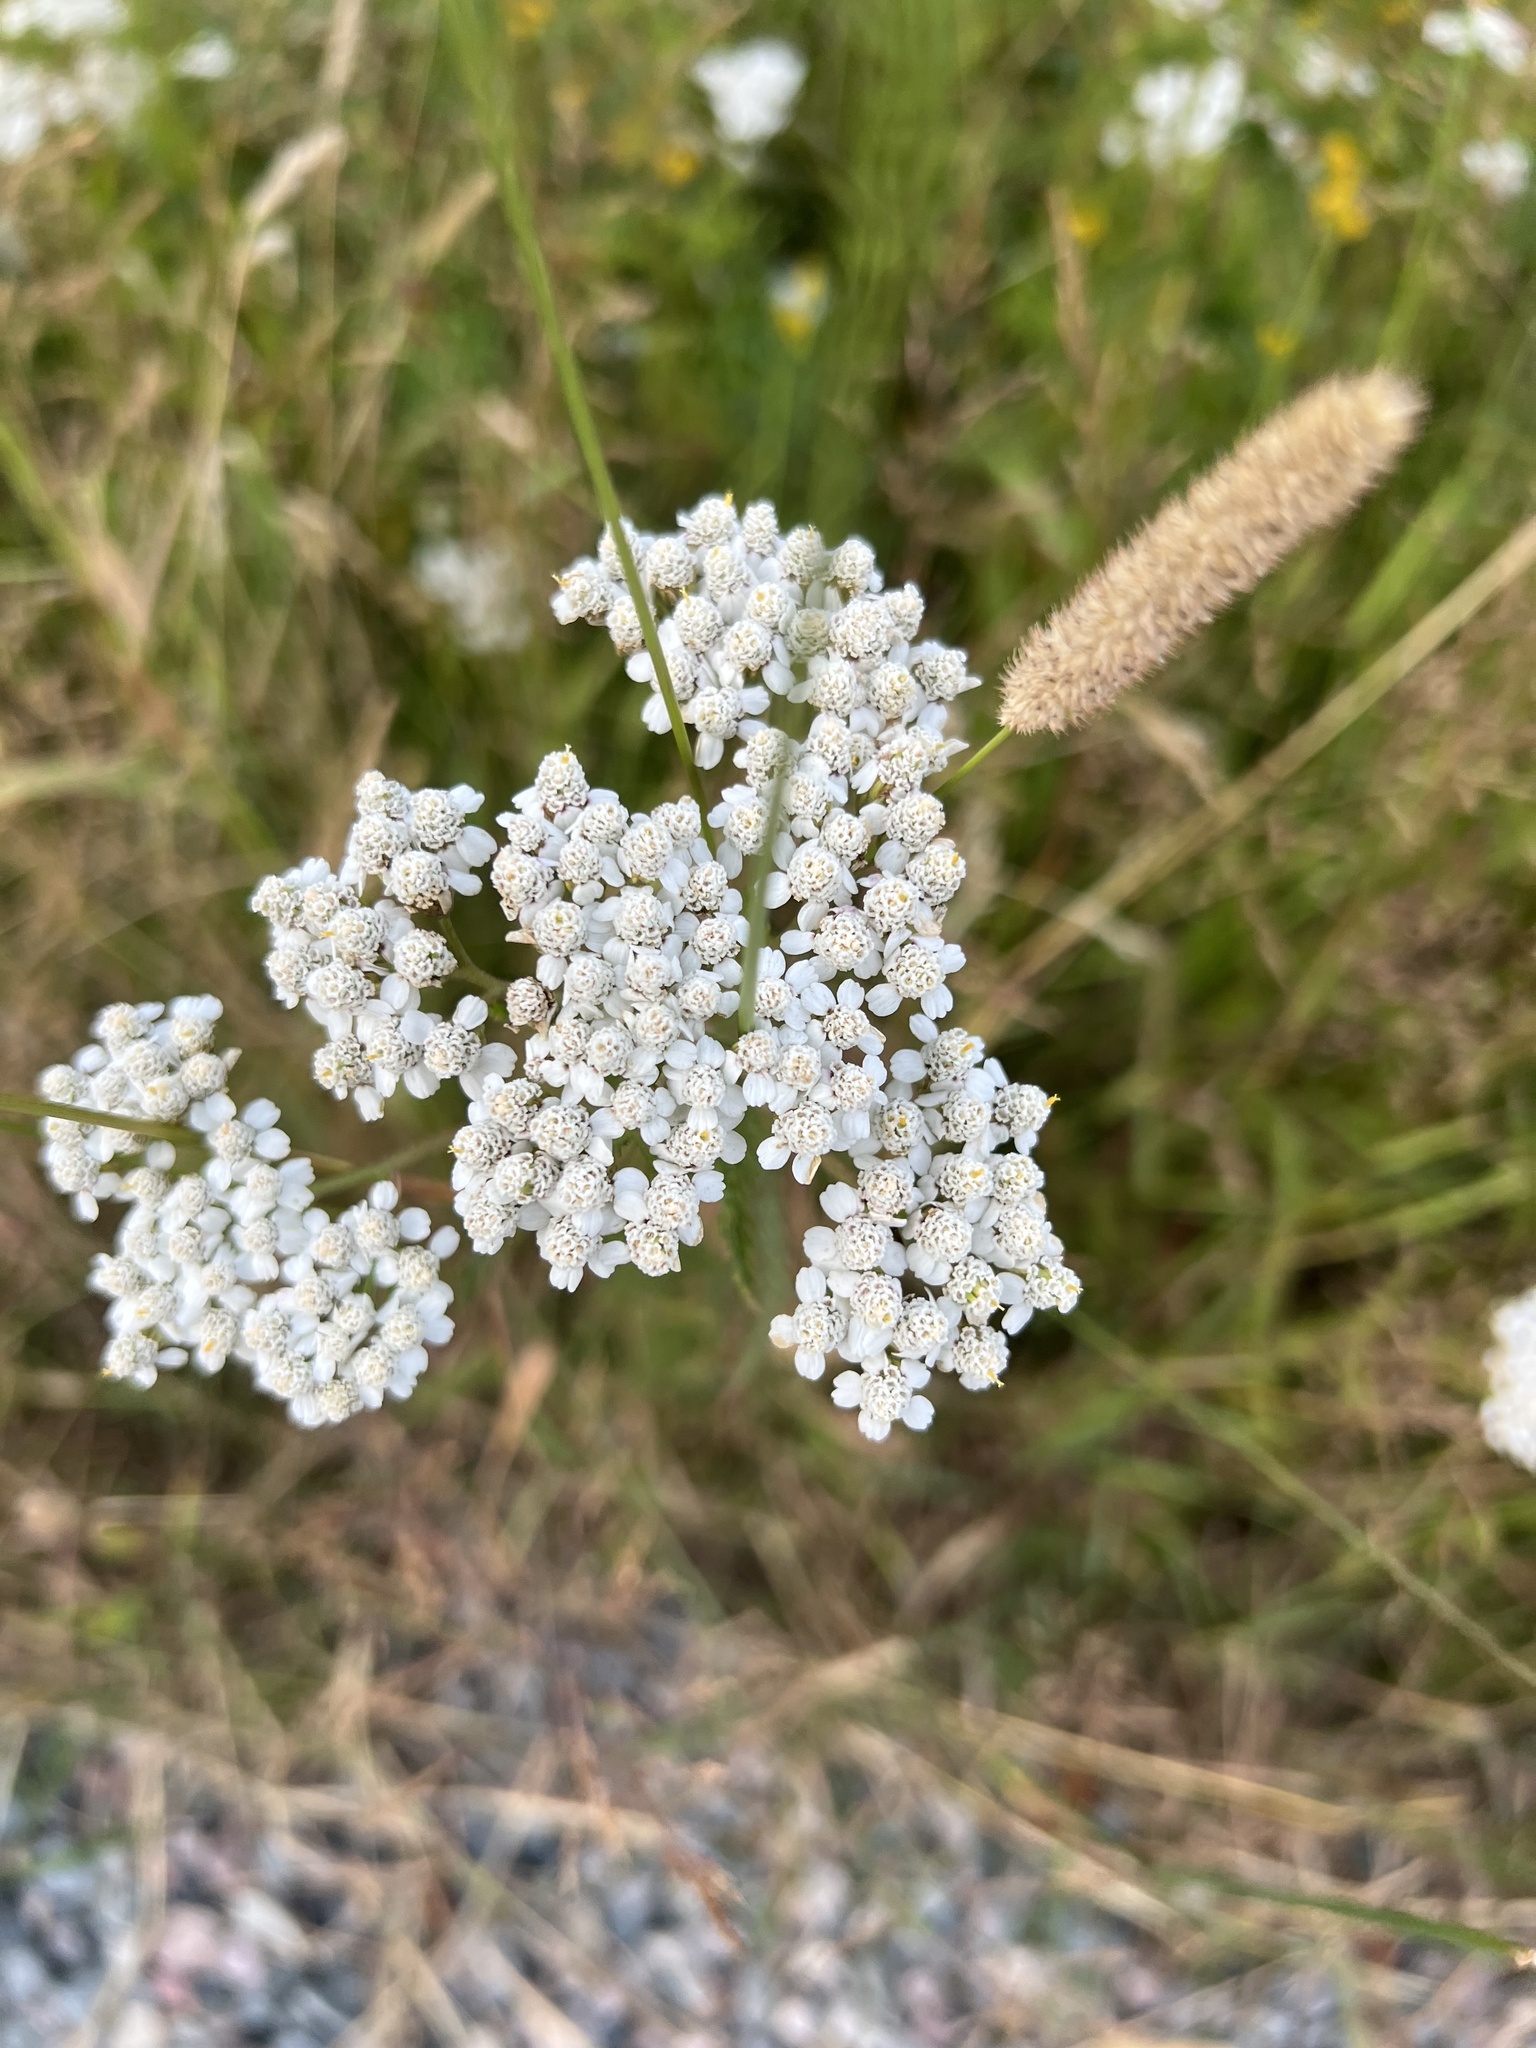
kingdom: Plantae
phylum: Tracheophyta
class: Magnoliopsida
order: Asterales
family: Asteraceae
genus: Achillea
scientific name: Achillea millefolium
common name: Yarrow
